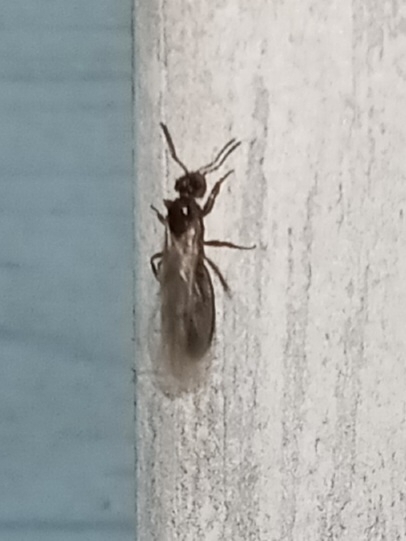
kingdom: Animalia
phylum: Arthropoda
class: Insecta
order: Hymenoptera
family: Formicidae
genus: Brachymyrmex
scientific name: Brachymyrmex patagonicus
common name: Dark rover ant
